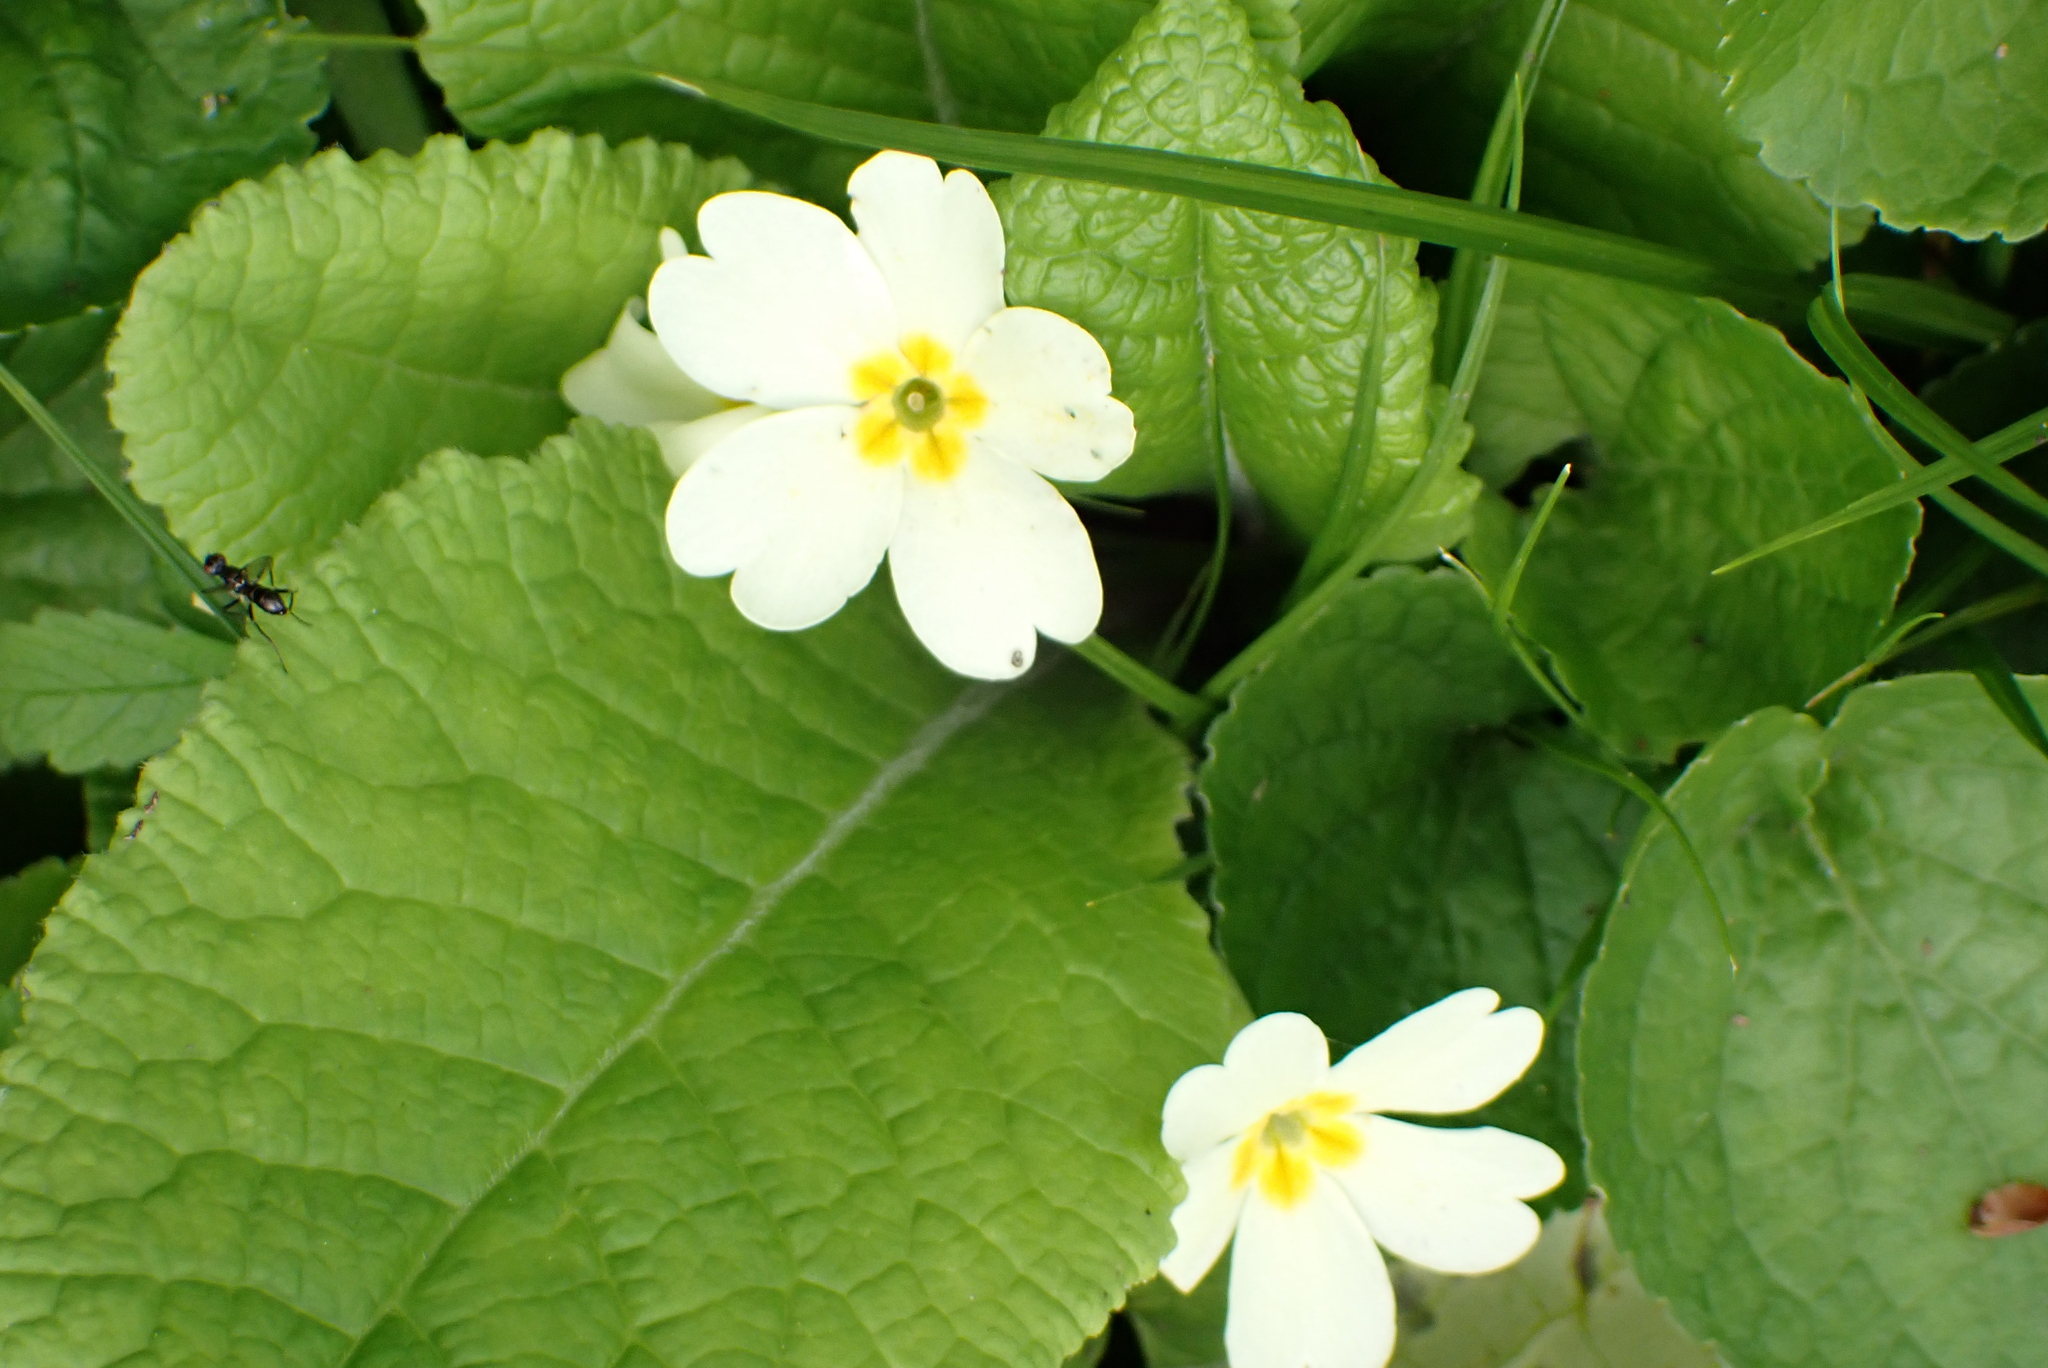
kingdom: Plantae
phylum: Tracheophyta
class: Magnoliopsida
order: Ericales
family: Primulaceae
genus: Primula
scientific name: Primula vulgaris
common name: Primrose
